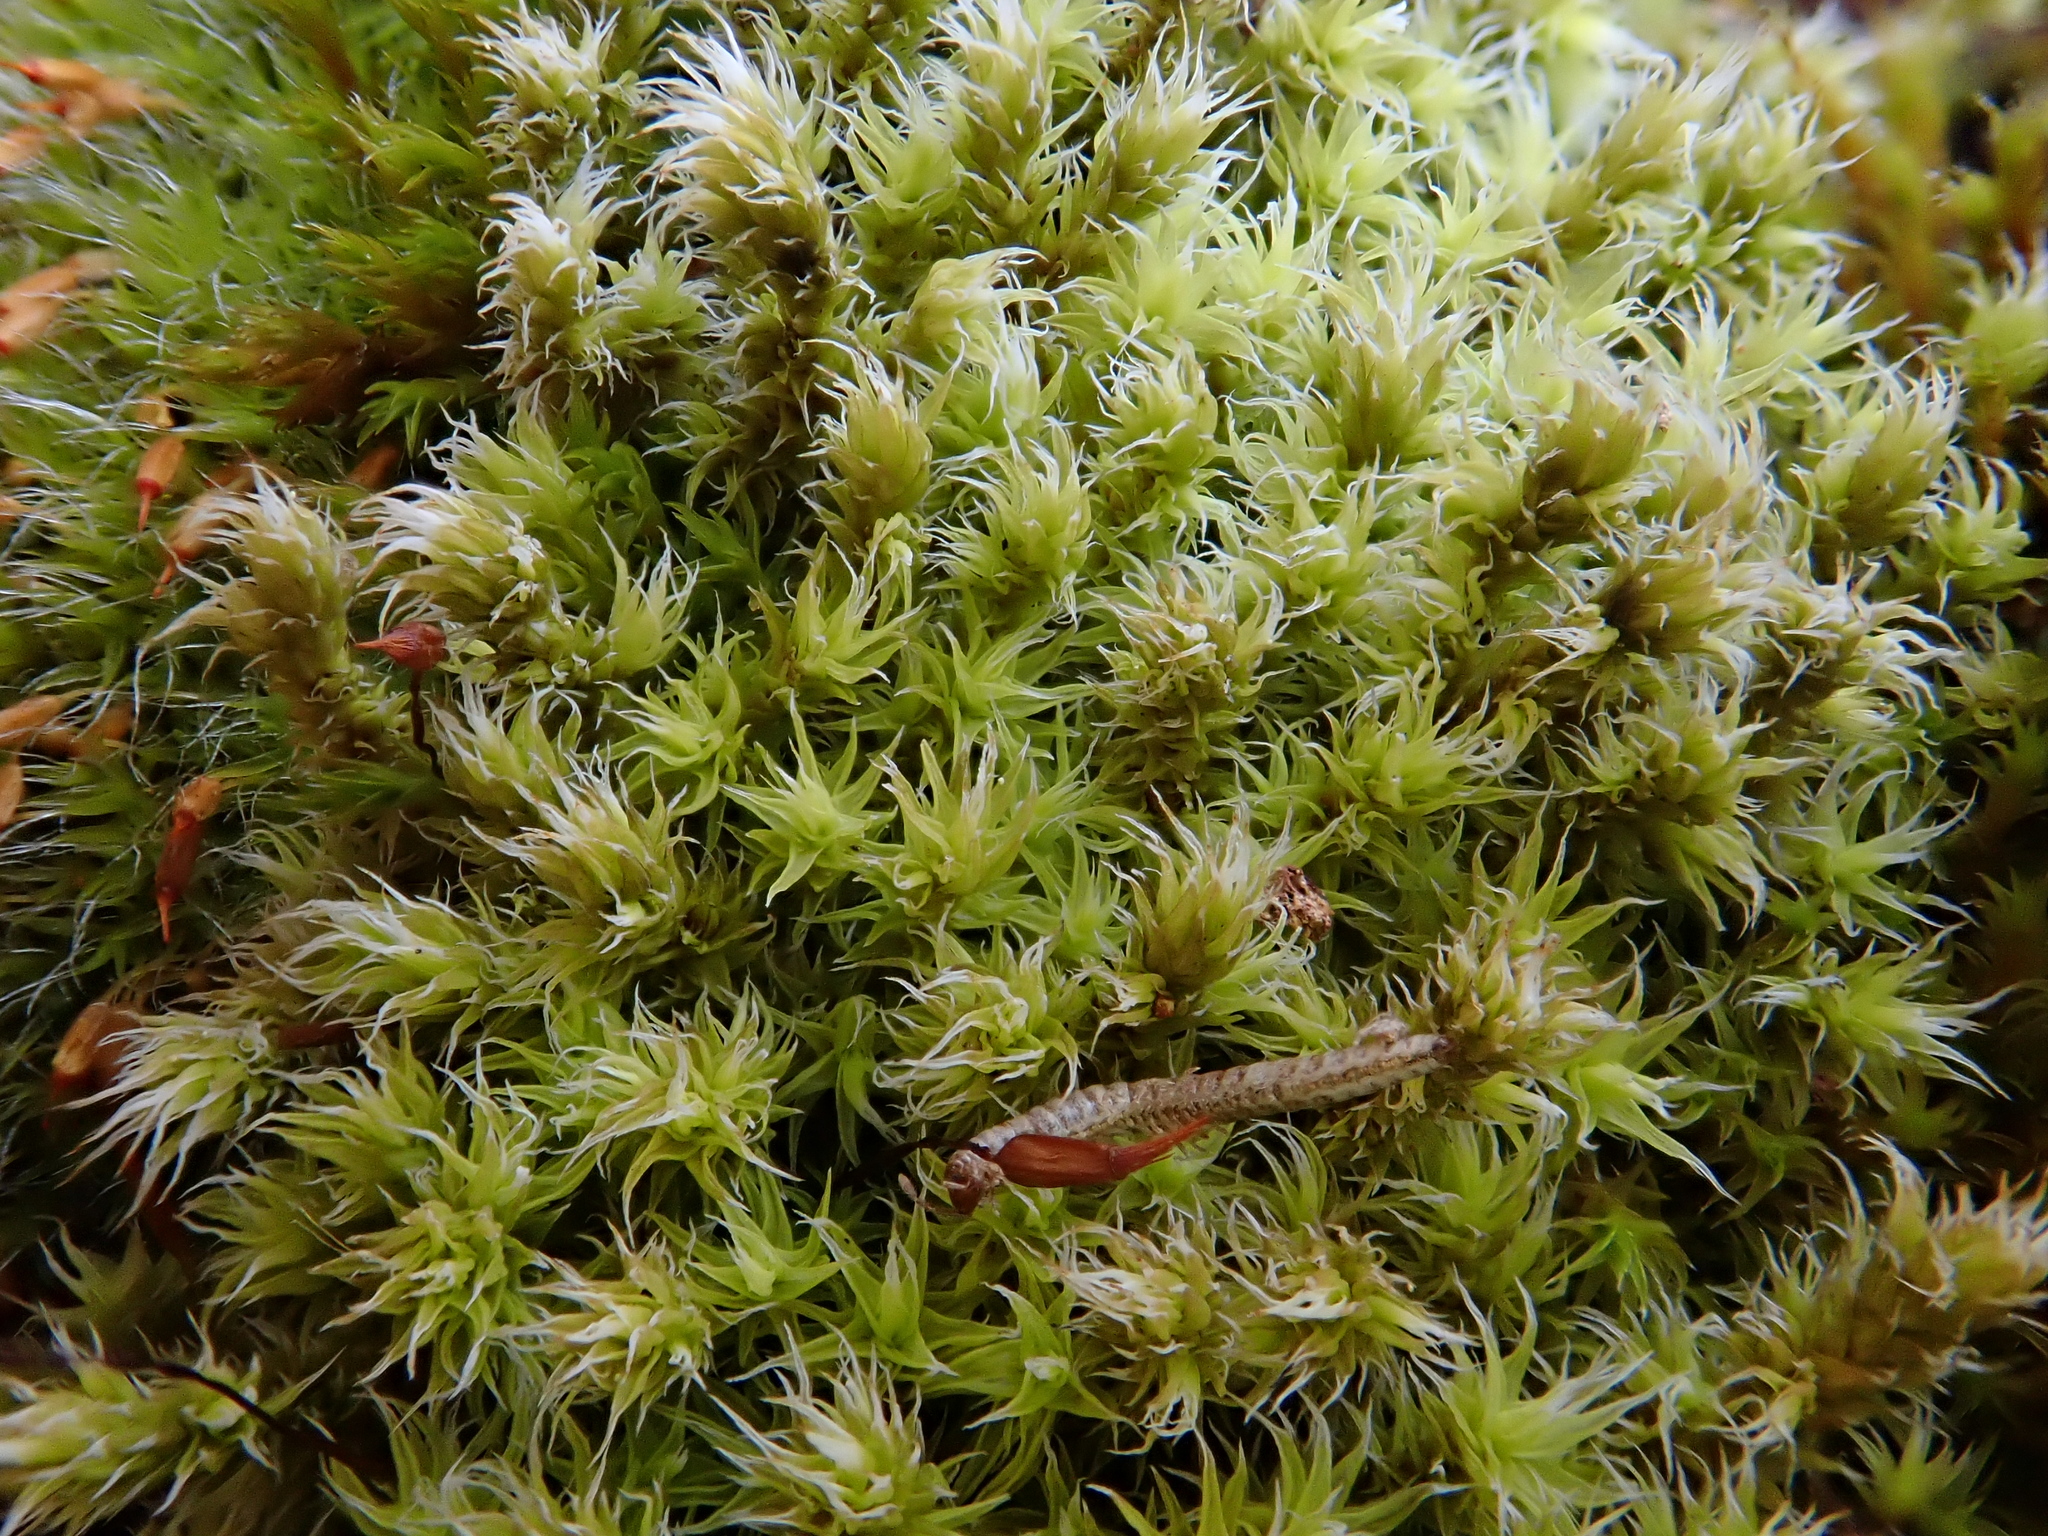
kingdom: Plantae
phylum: Bryophyta
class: Bryopsida
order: Grimmiales
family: Grimmiaceae
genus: Niphotrichum
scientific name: Niphotrichum canescens
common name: Hoary fringe-moss
